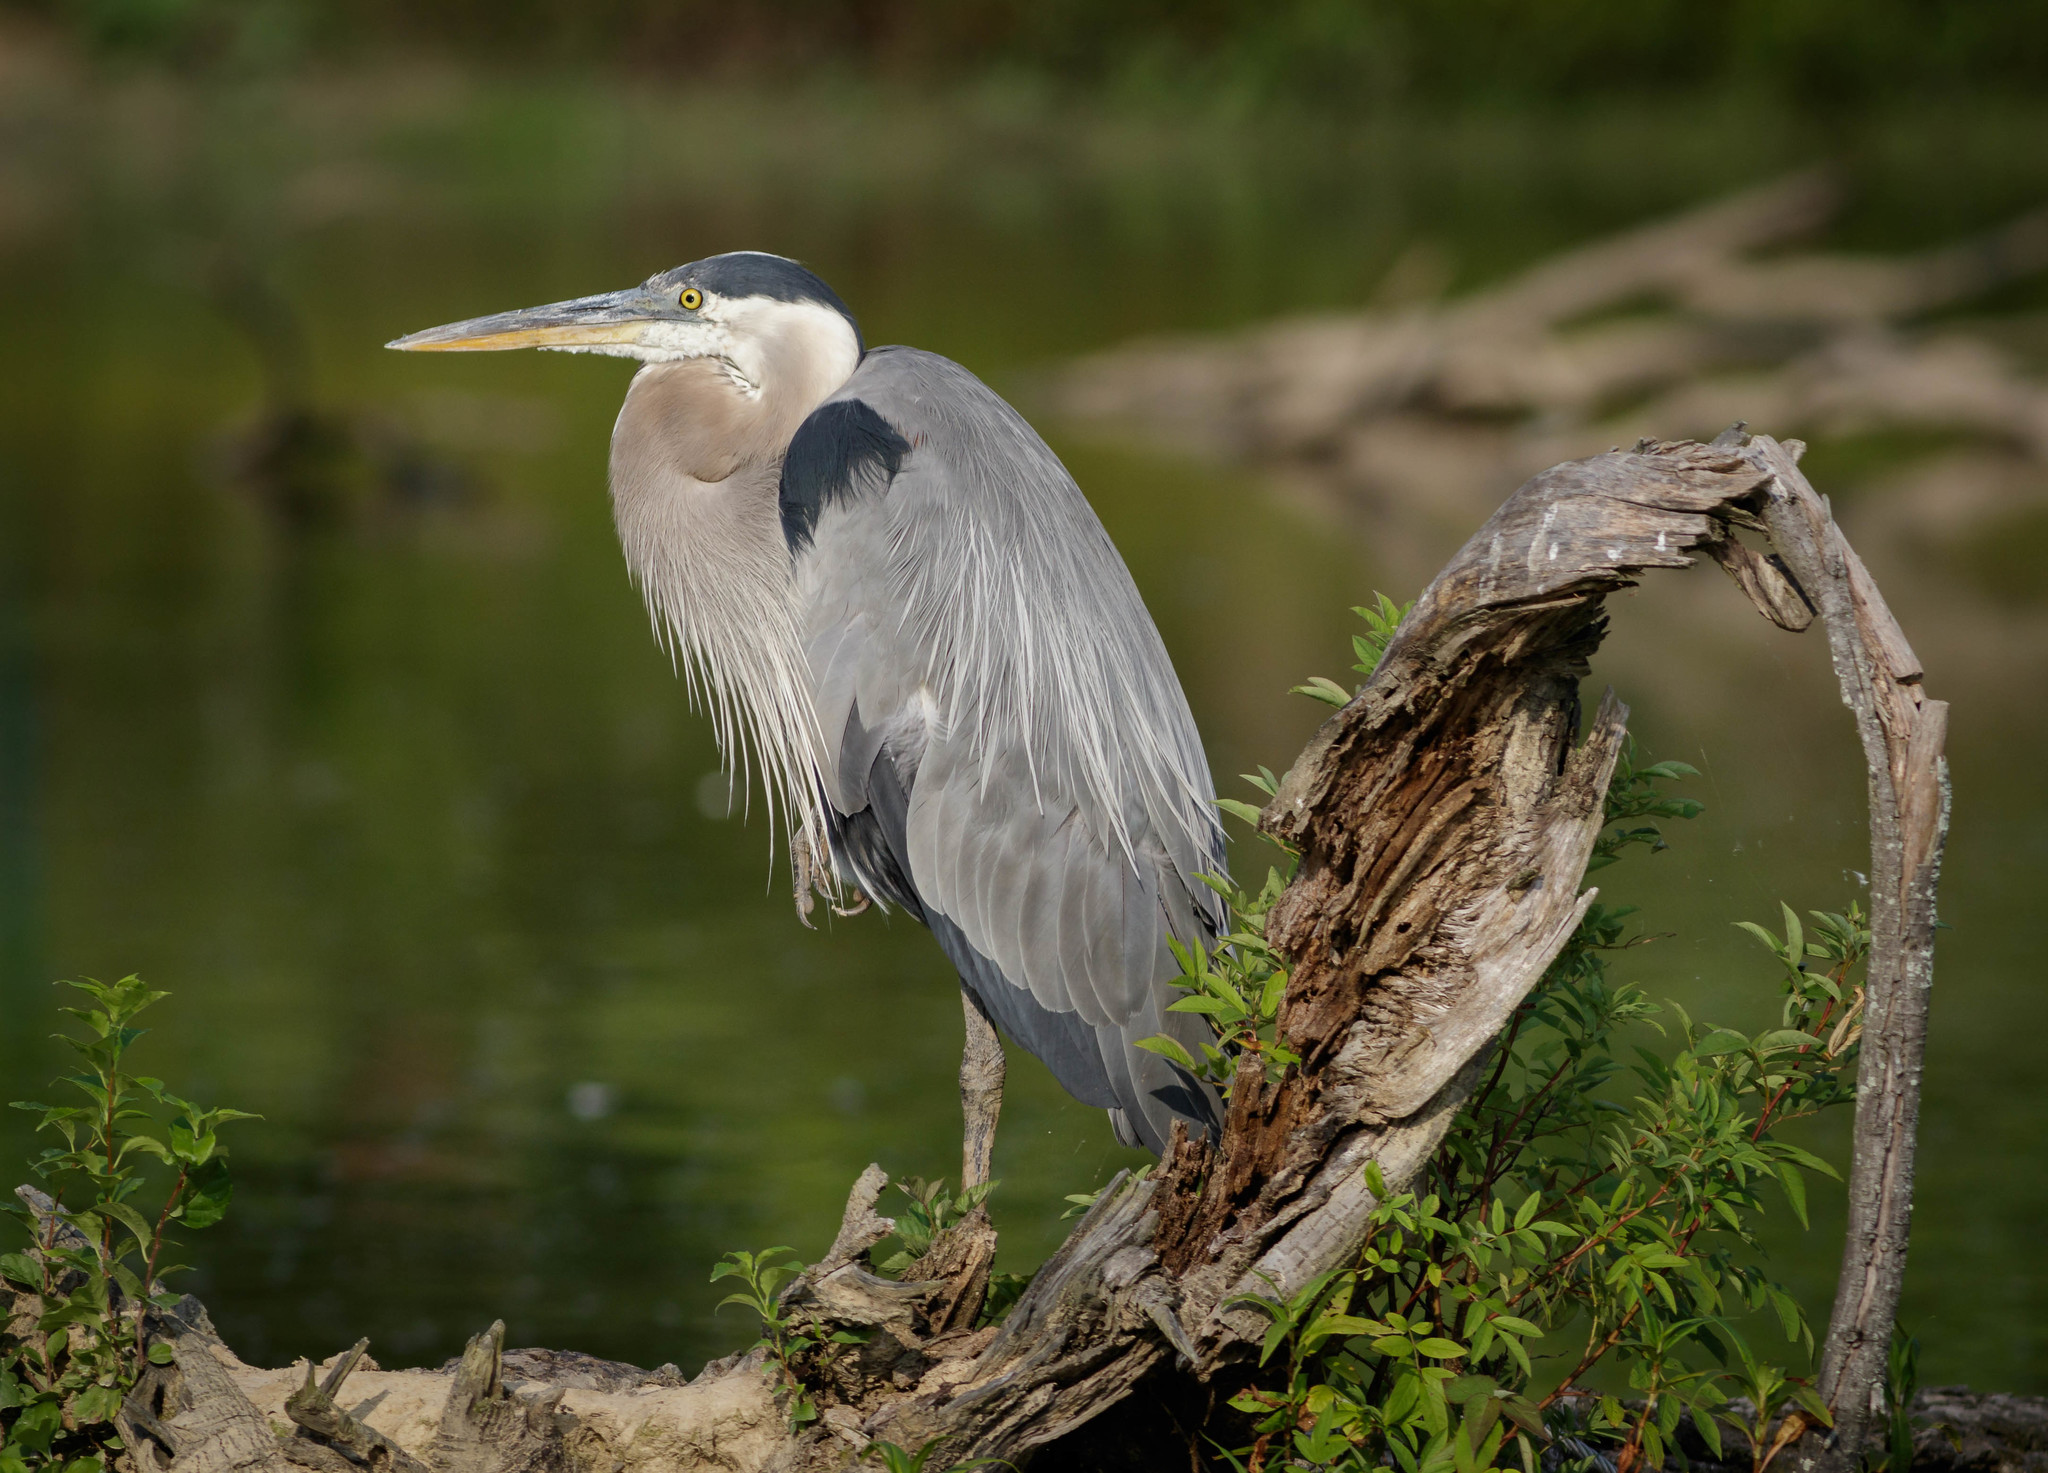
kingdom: Animalia
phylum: Chordata
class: Aves
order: Pelecaniformes
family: Ardeidae
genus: Ardea
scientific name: Ardea herodias
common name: Great blue heron
